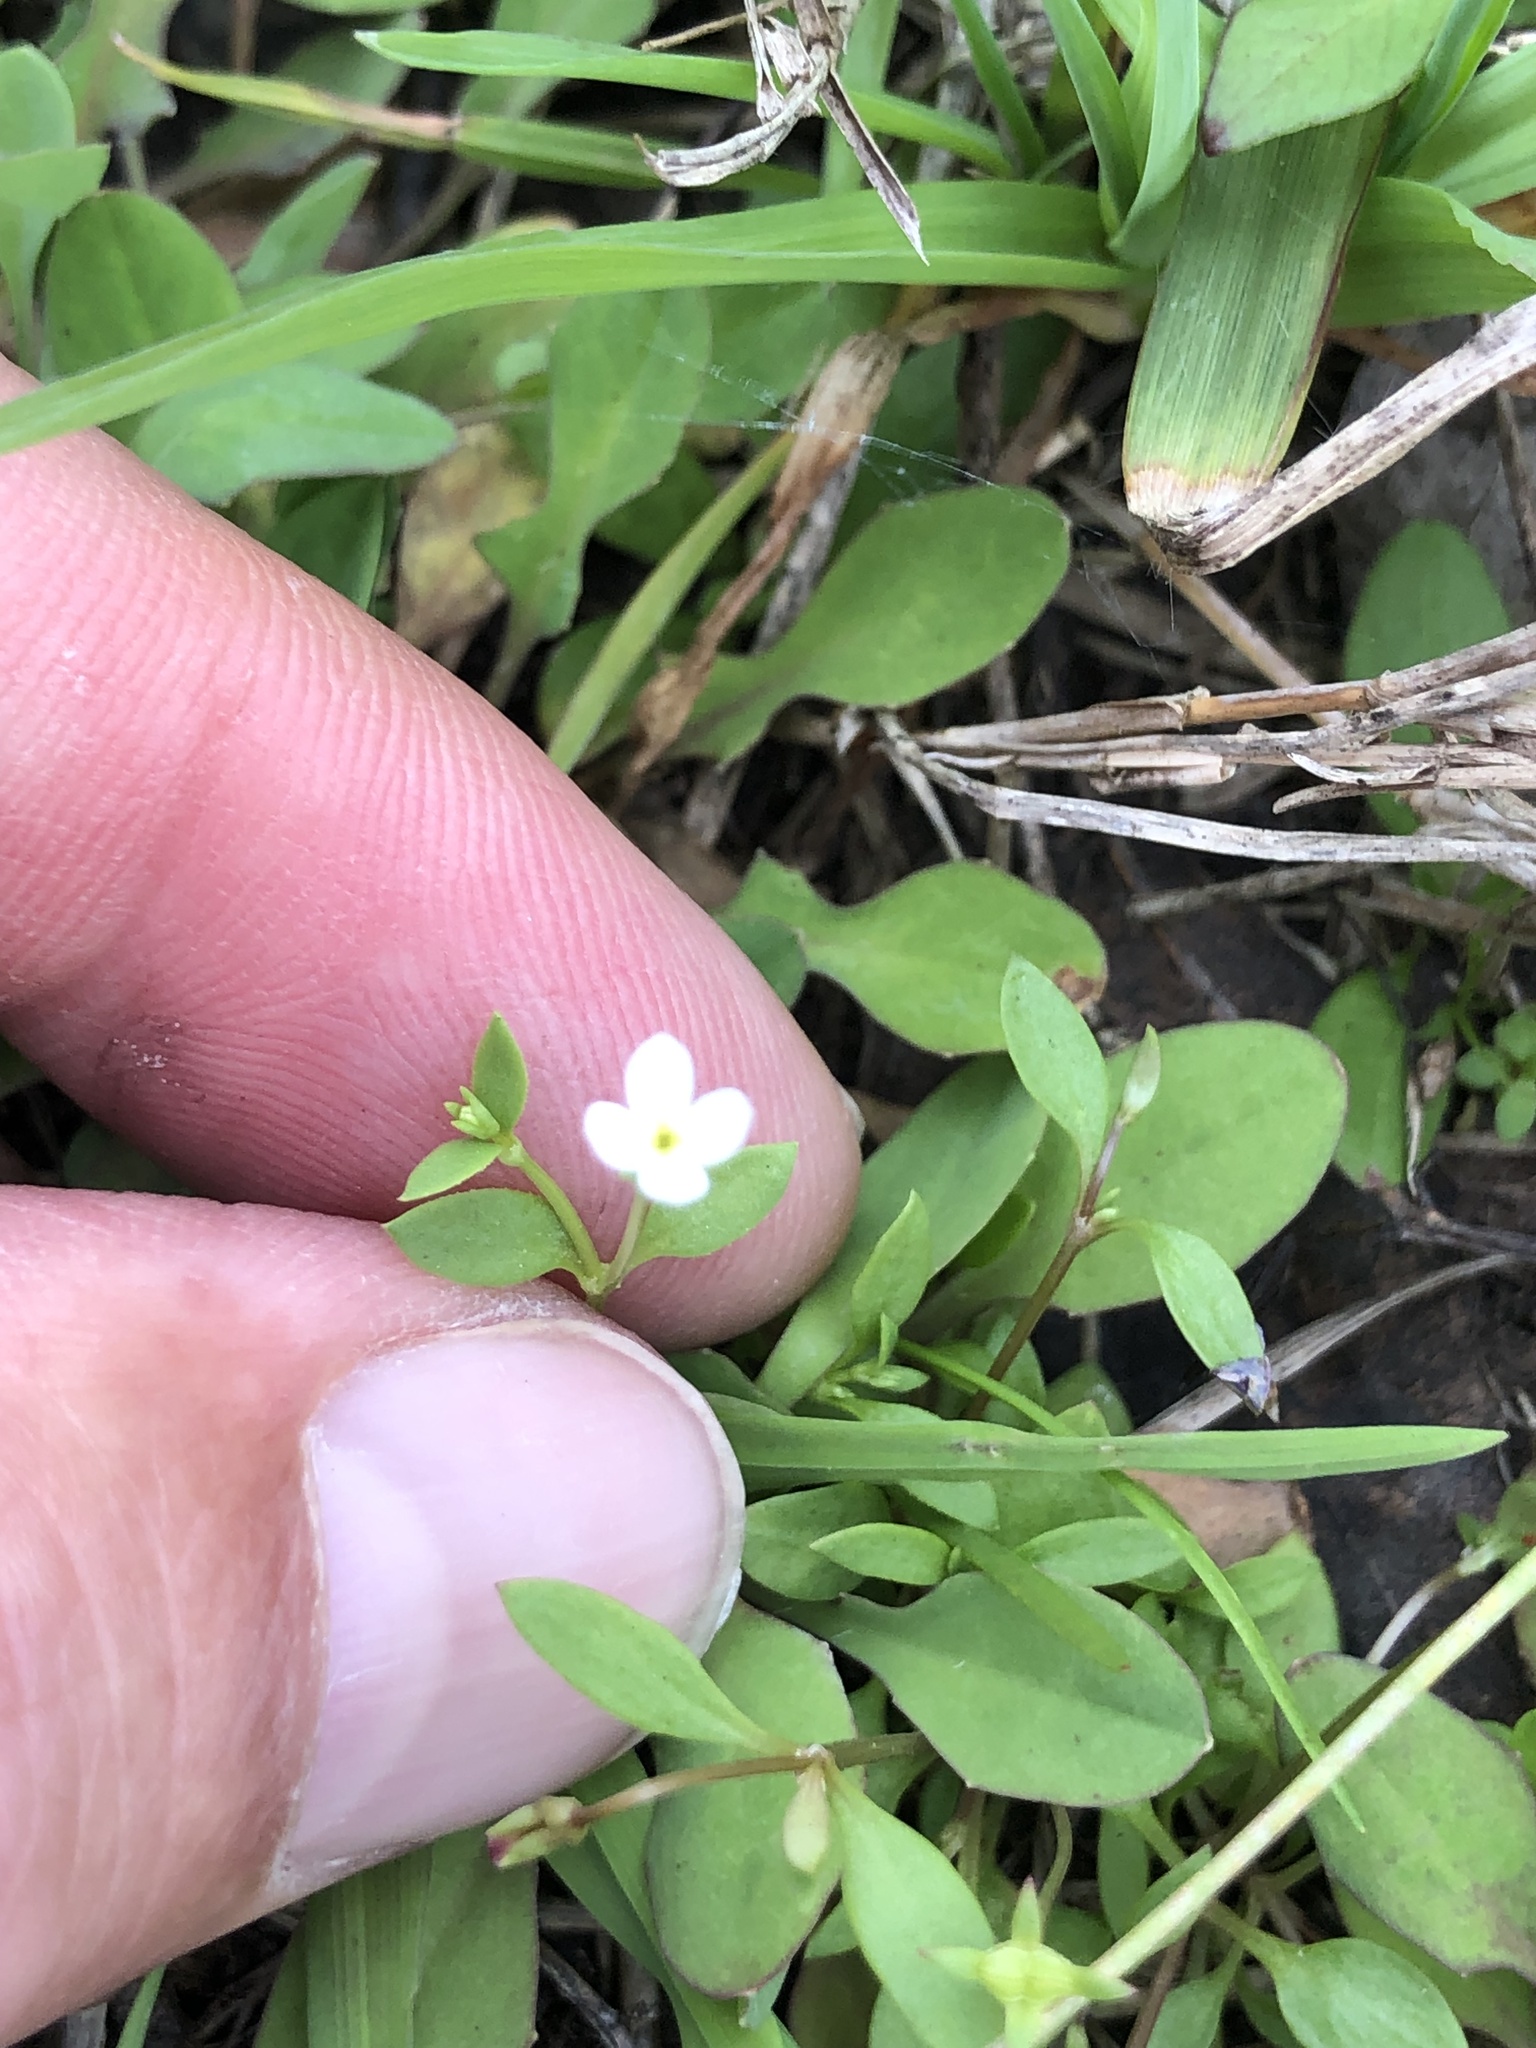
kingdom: Plantae
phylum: Tracheophyta
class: Magnoliopsida
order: Gentianales
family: Rubiaceae
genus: Houstonia
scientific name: Houstonia micrantha
